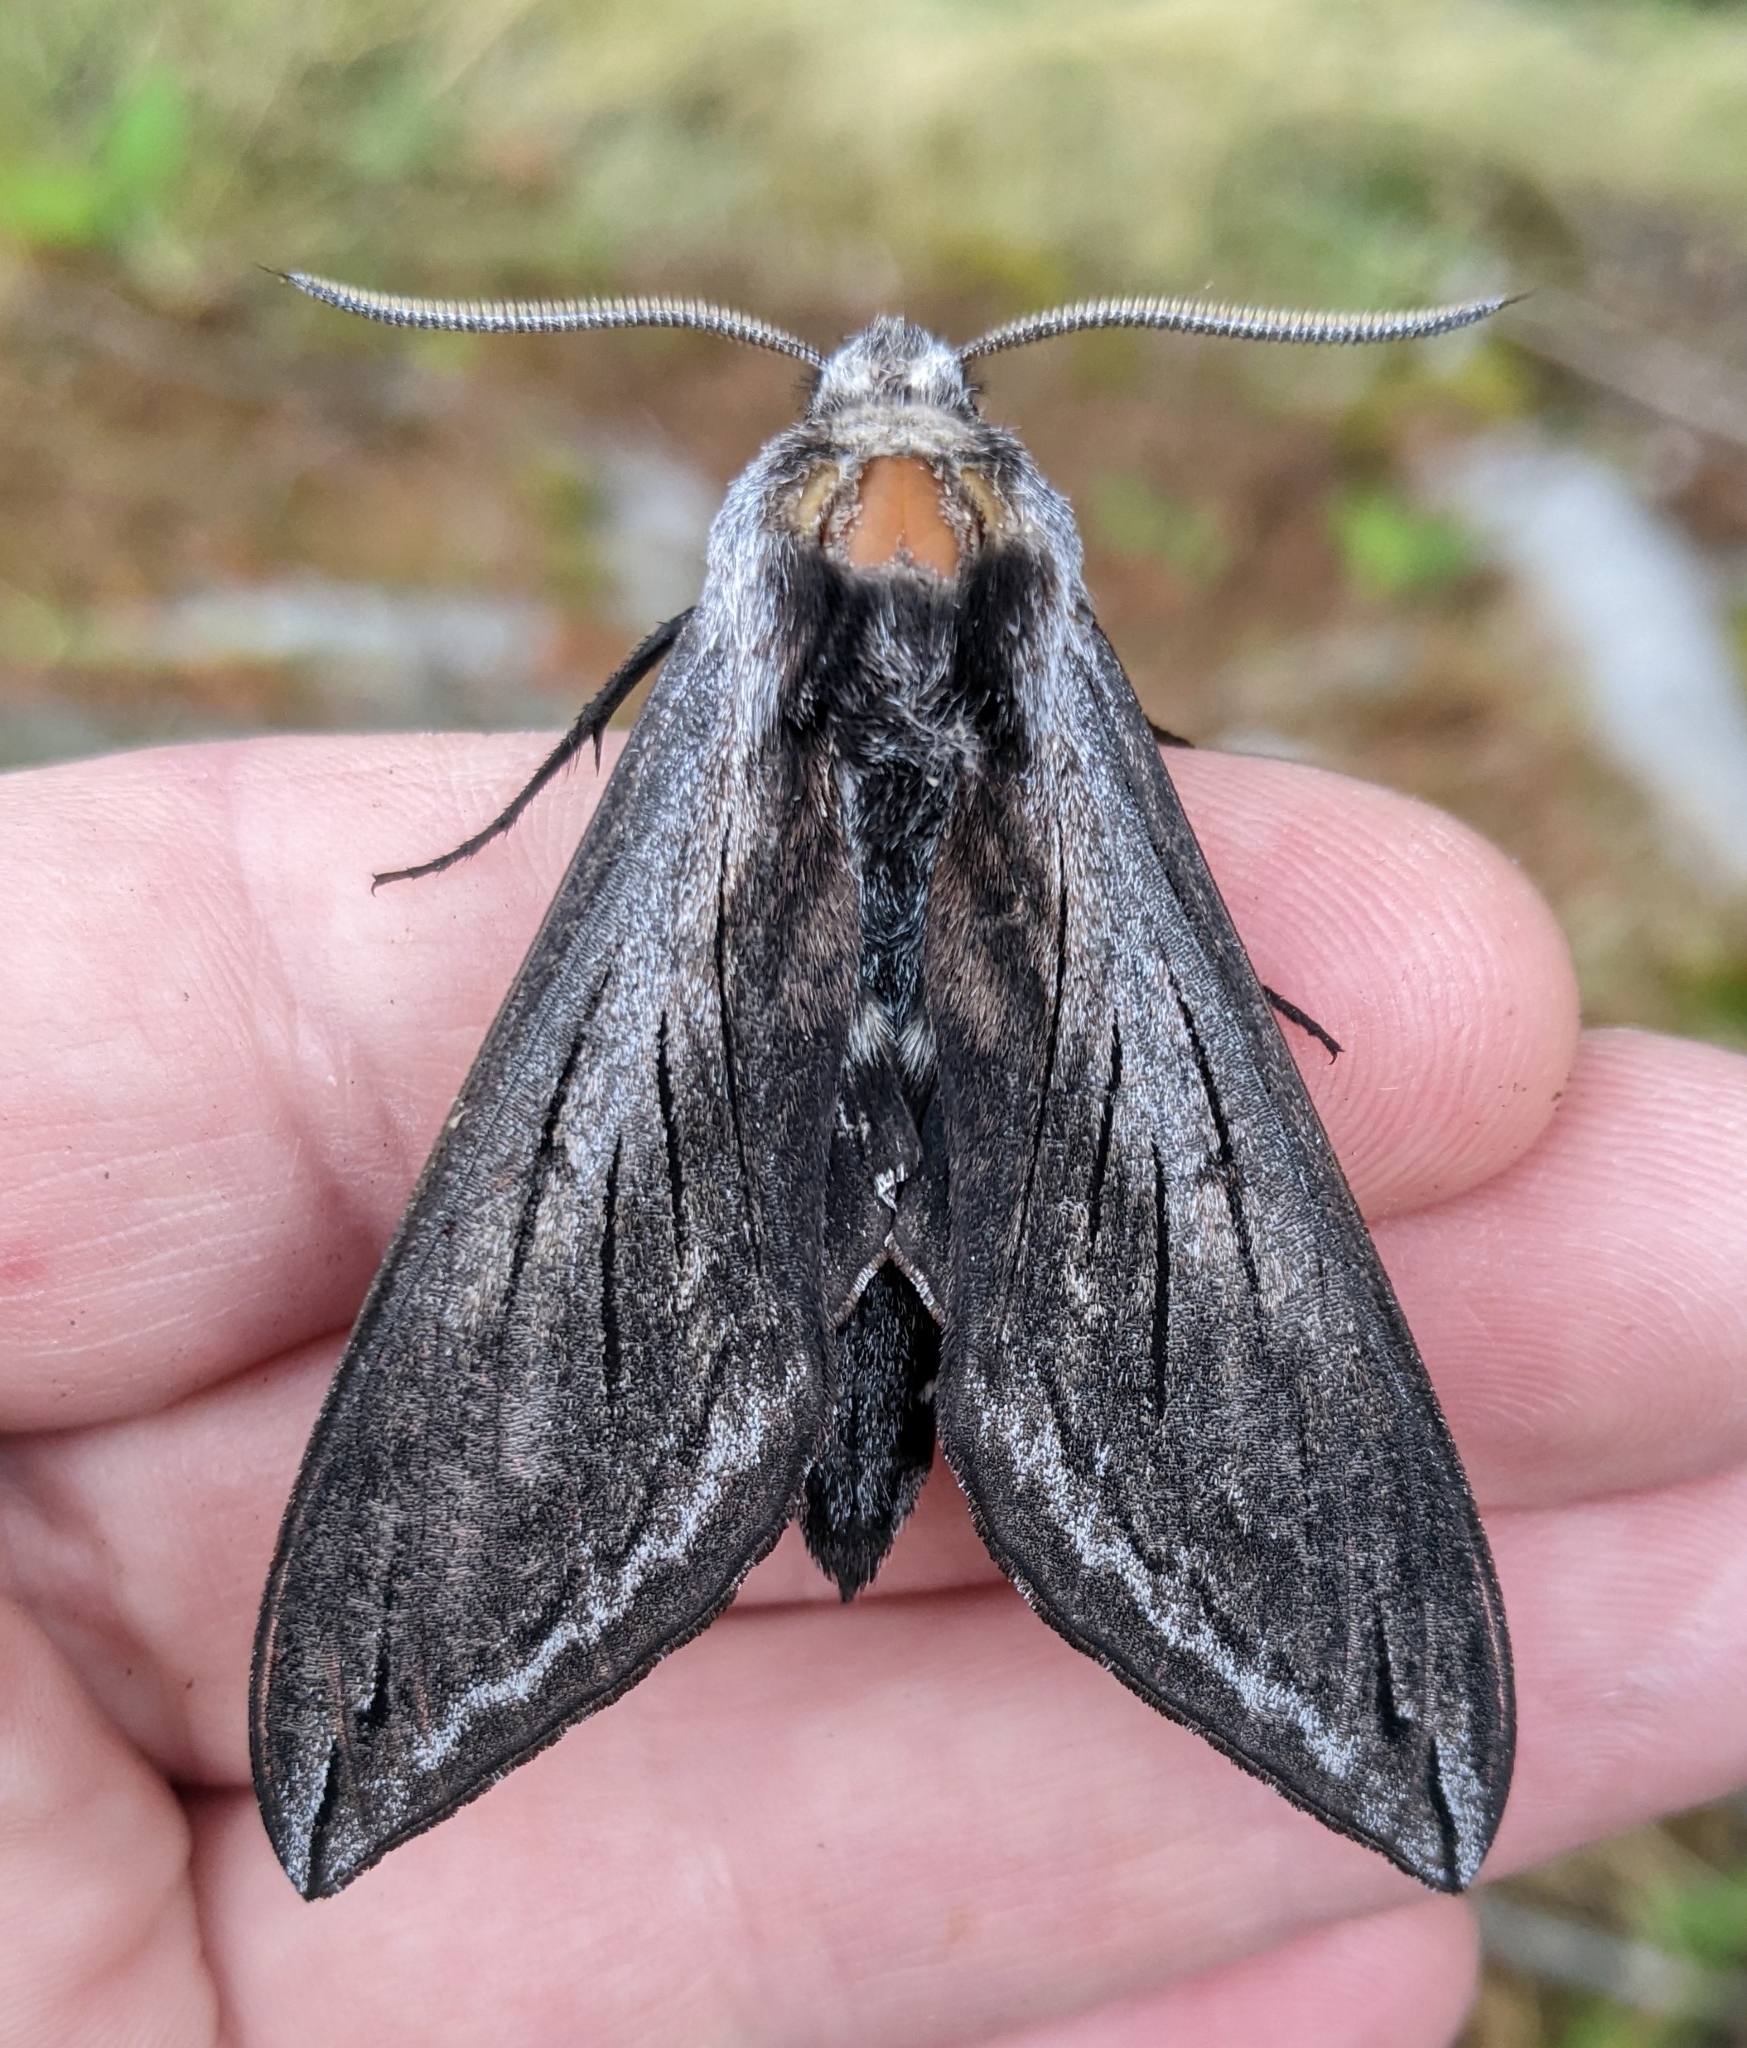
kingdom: Animalia
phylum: Arthropoda
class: Insecta
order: Lepidoptera
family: Sphingidae
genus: Sphinx
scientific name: Sphinx perelegans
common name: Elegant sphinx
